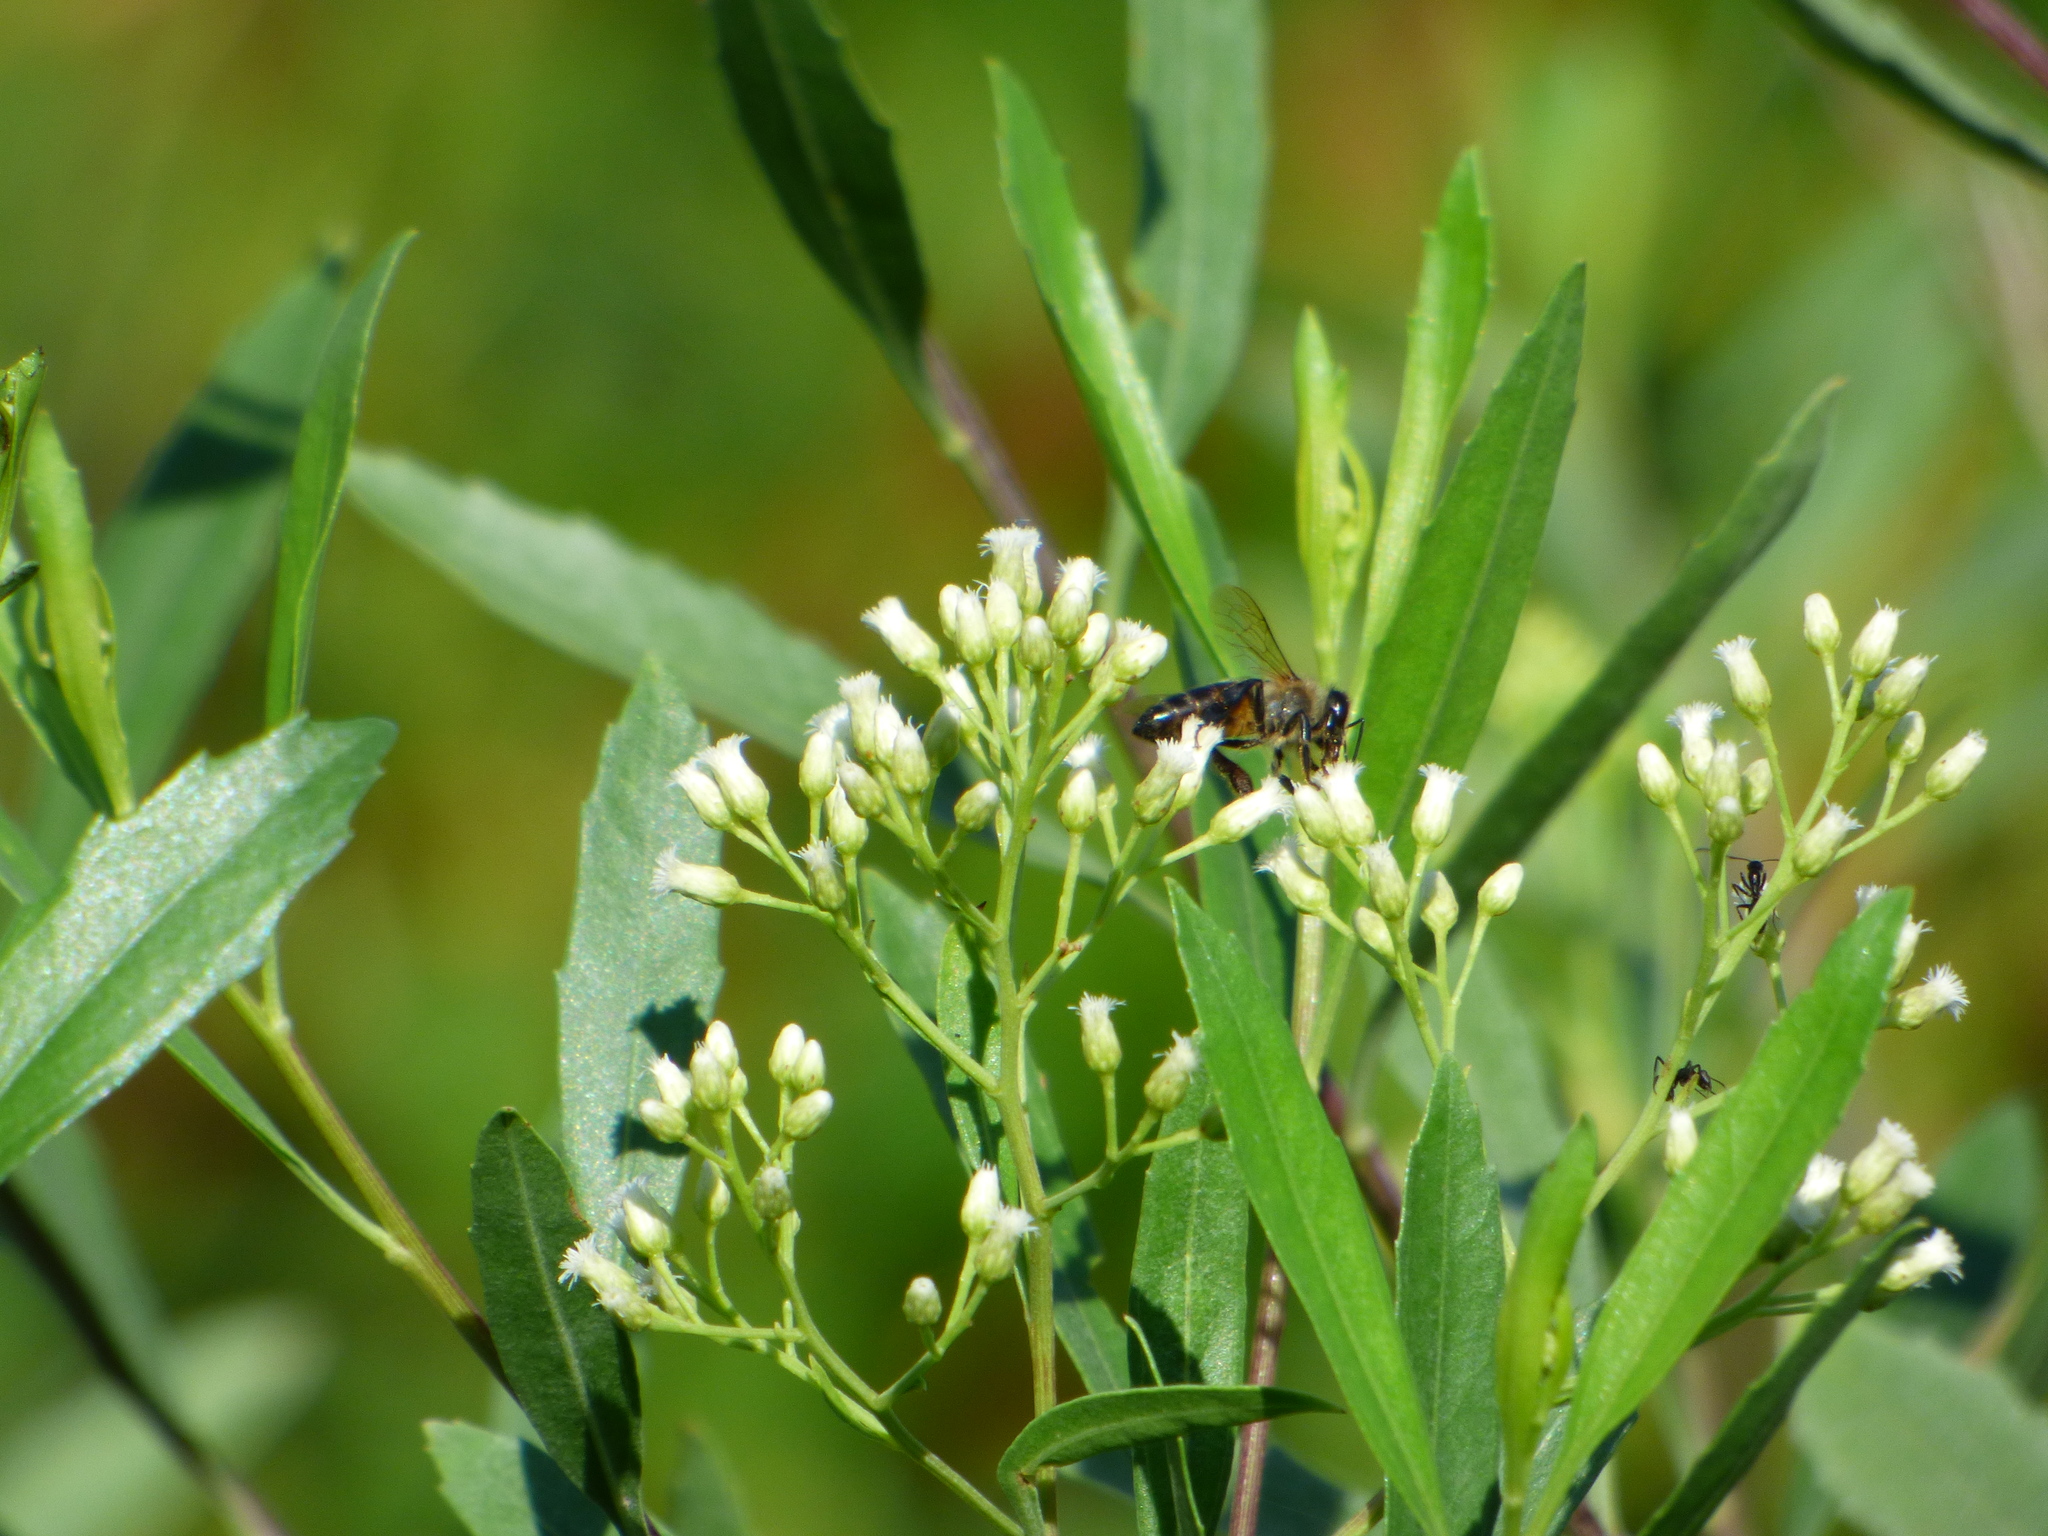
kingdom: Animalia
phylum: Arthropoda
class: Insecta
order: Hymenoptera
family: Apidae
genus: Apis
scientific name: Apis mellifera
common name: Honey bee
